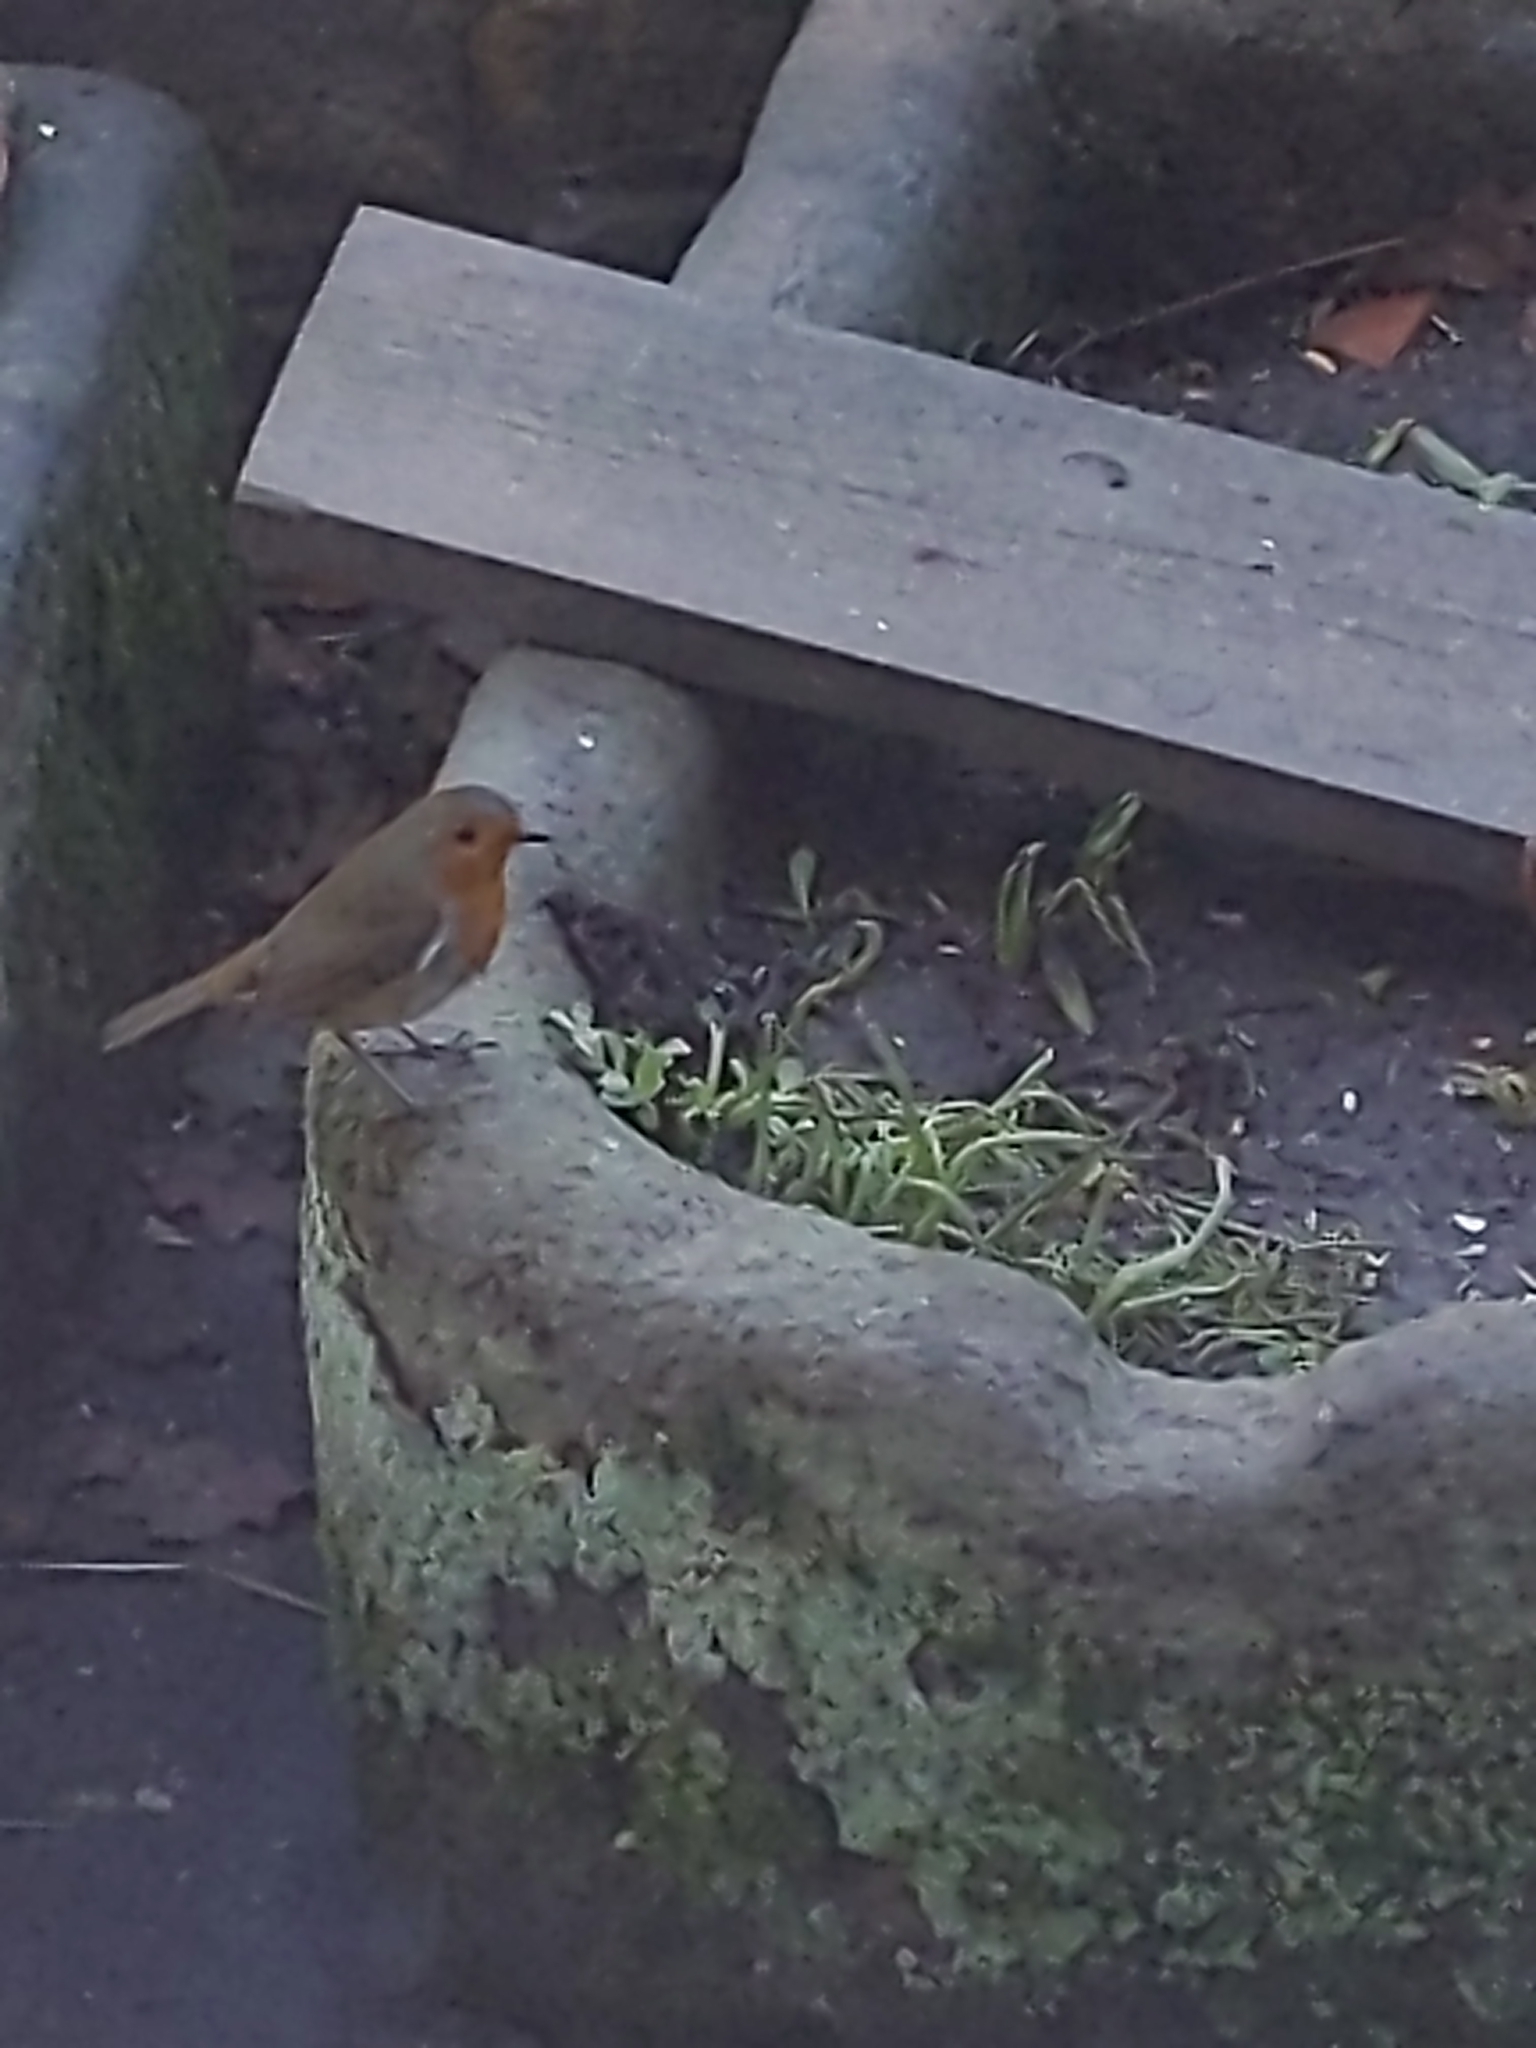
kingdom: Animalia
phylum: Chordata
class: Aves
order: Passeriformes
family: Muscicapidae
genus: Erithacus
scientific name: Erithacus rubecula
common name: European robin
